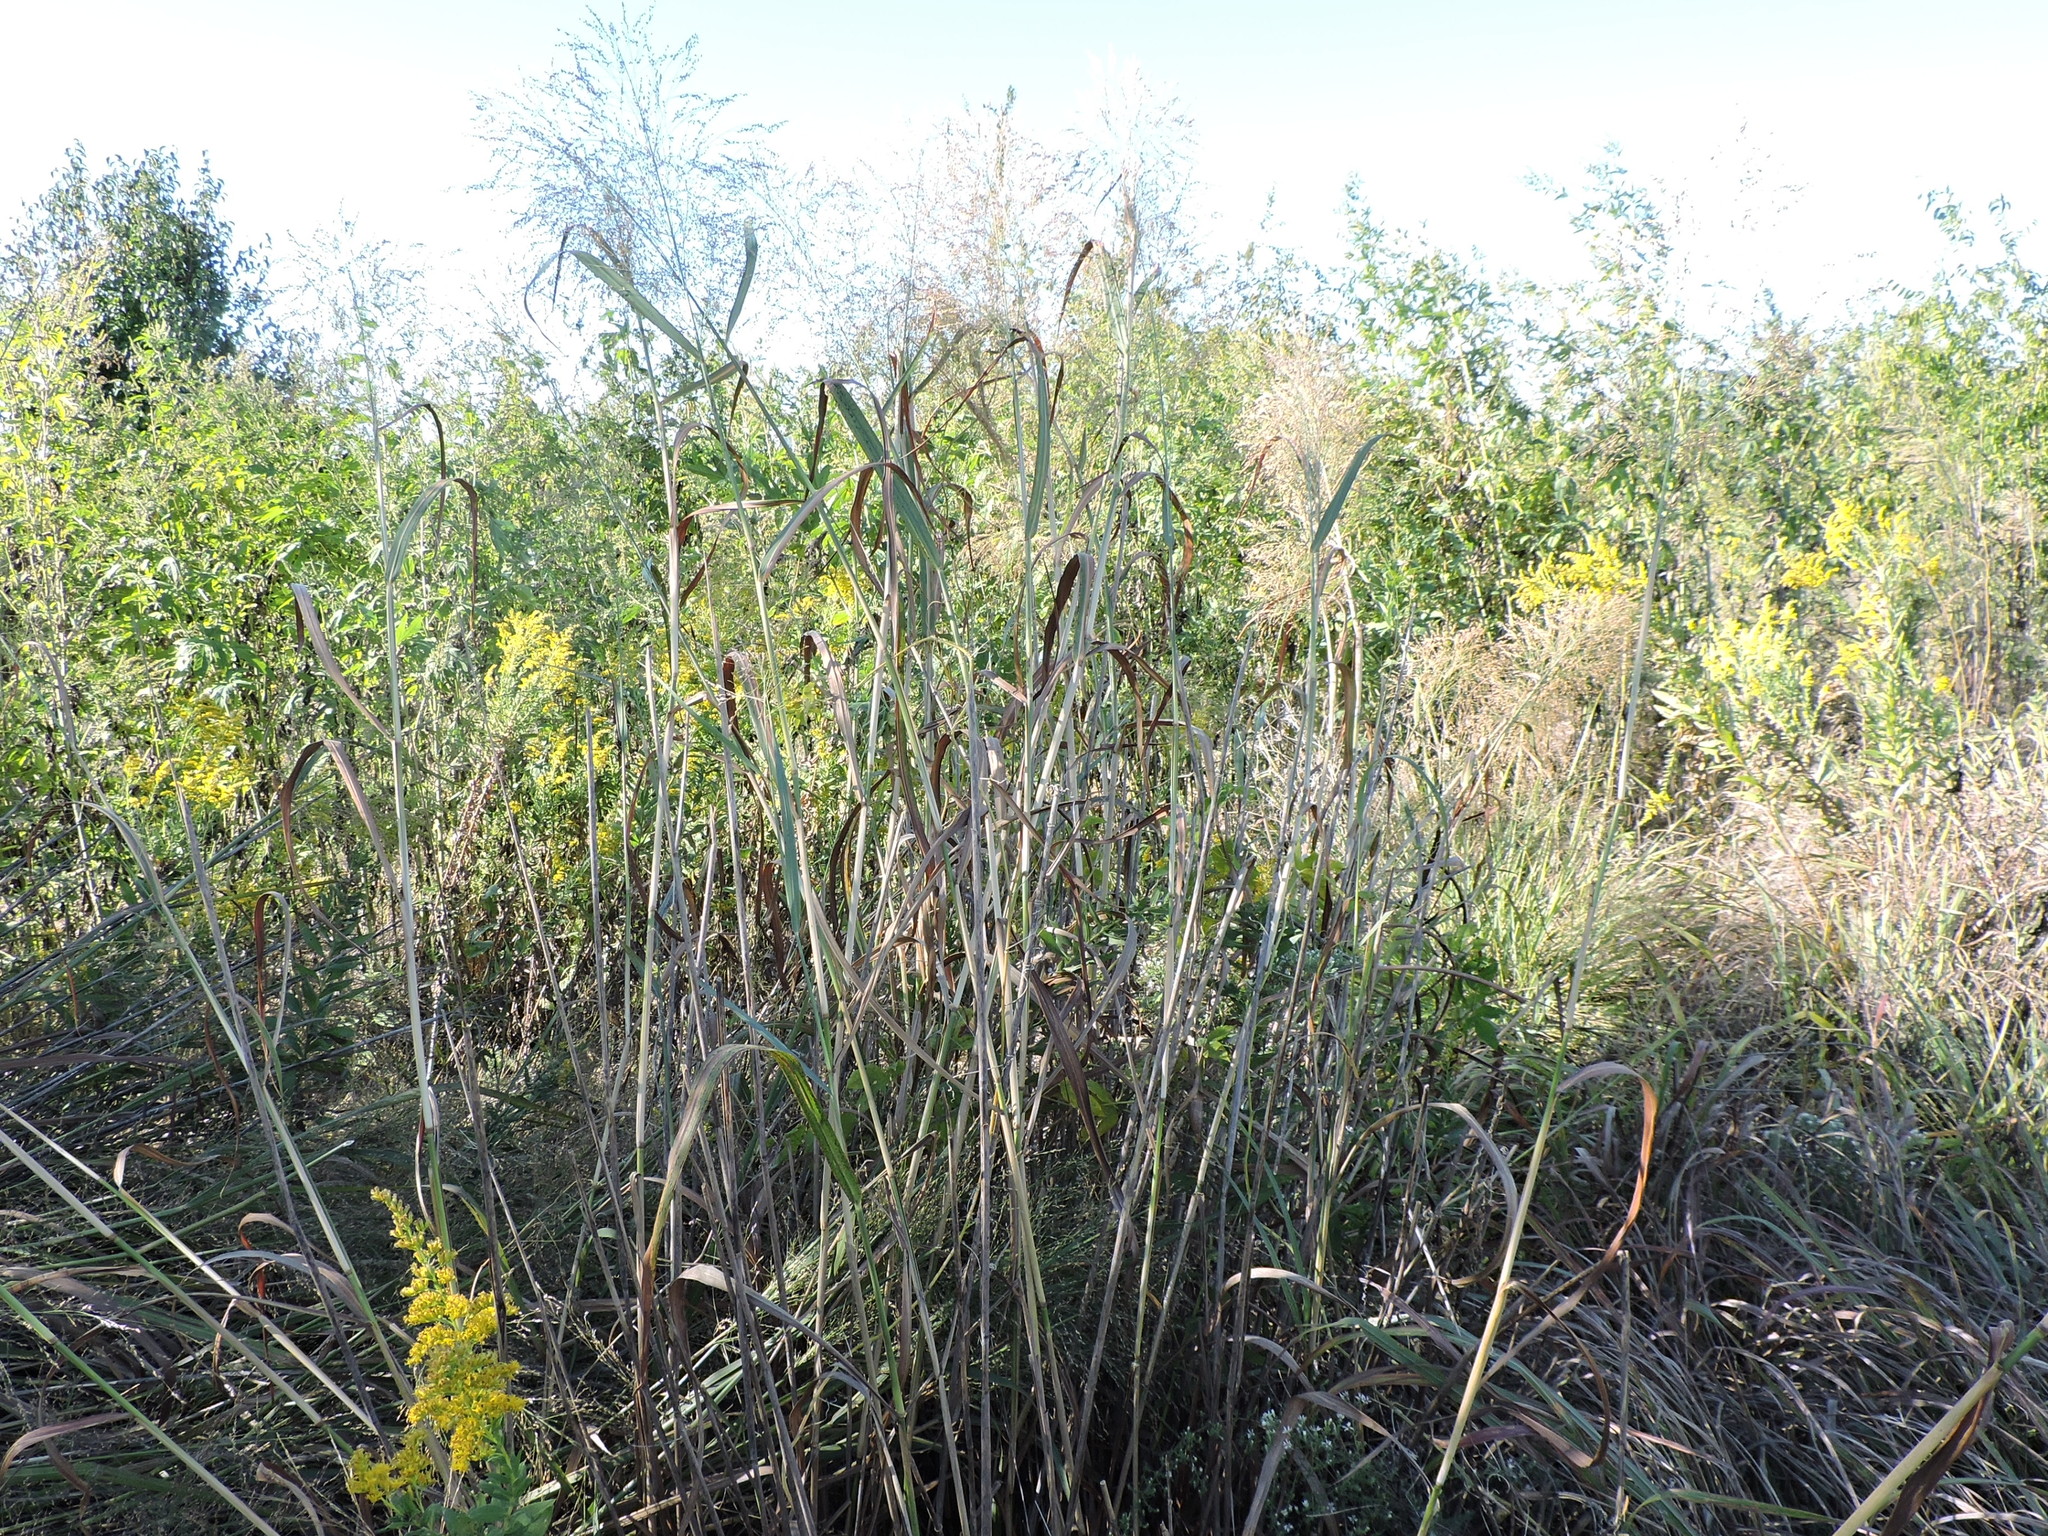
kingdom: Plantae
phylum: Tracheophyta
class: Liliopsida
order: Poales
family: Poaceae
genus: Panicum
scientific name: Panicum virgatum
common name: Switchgrass
